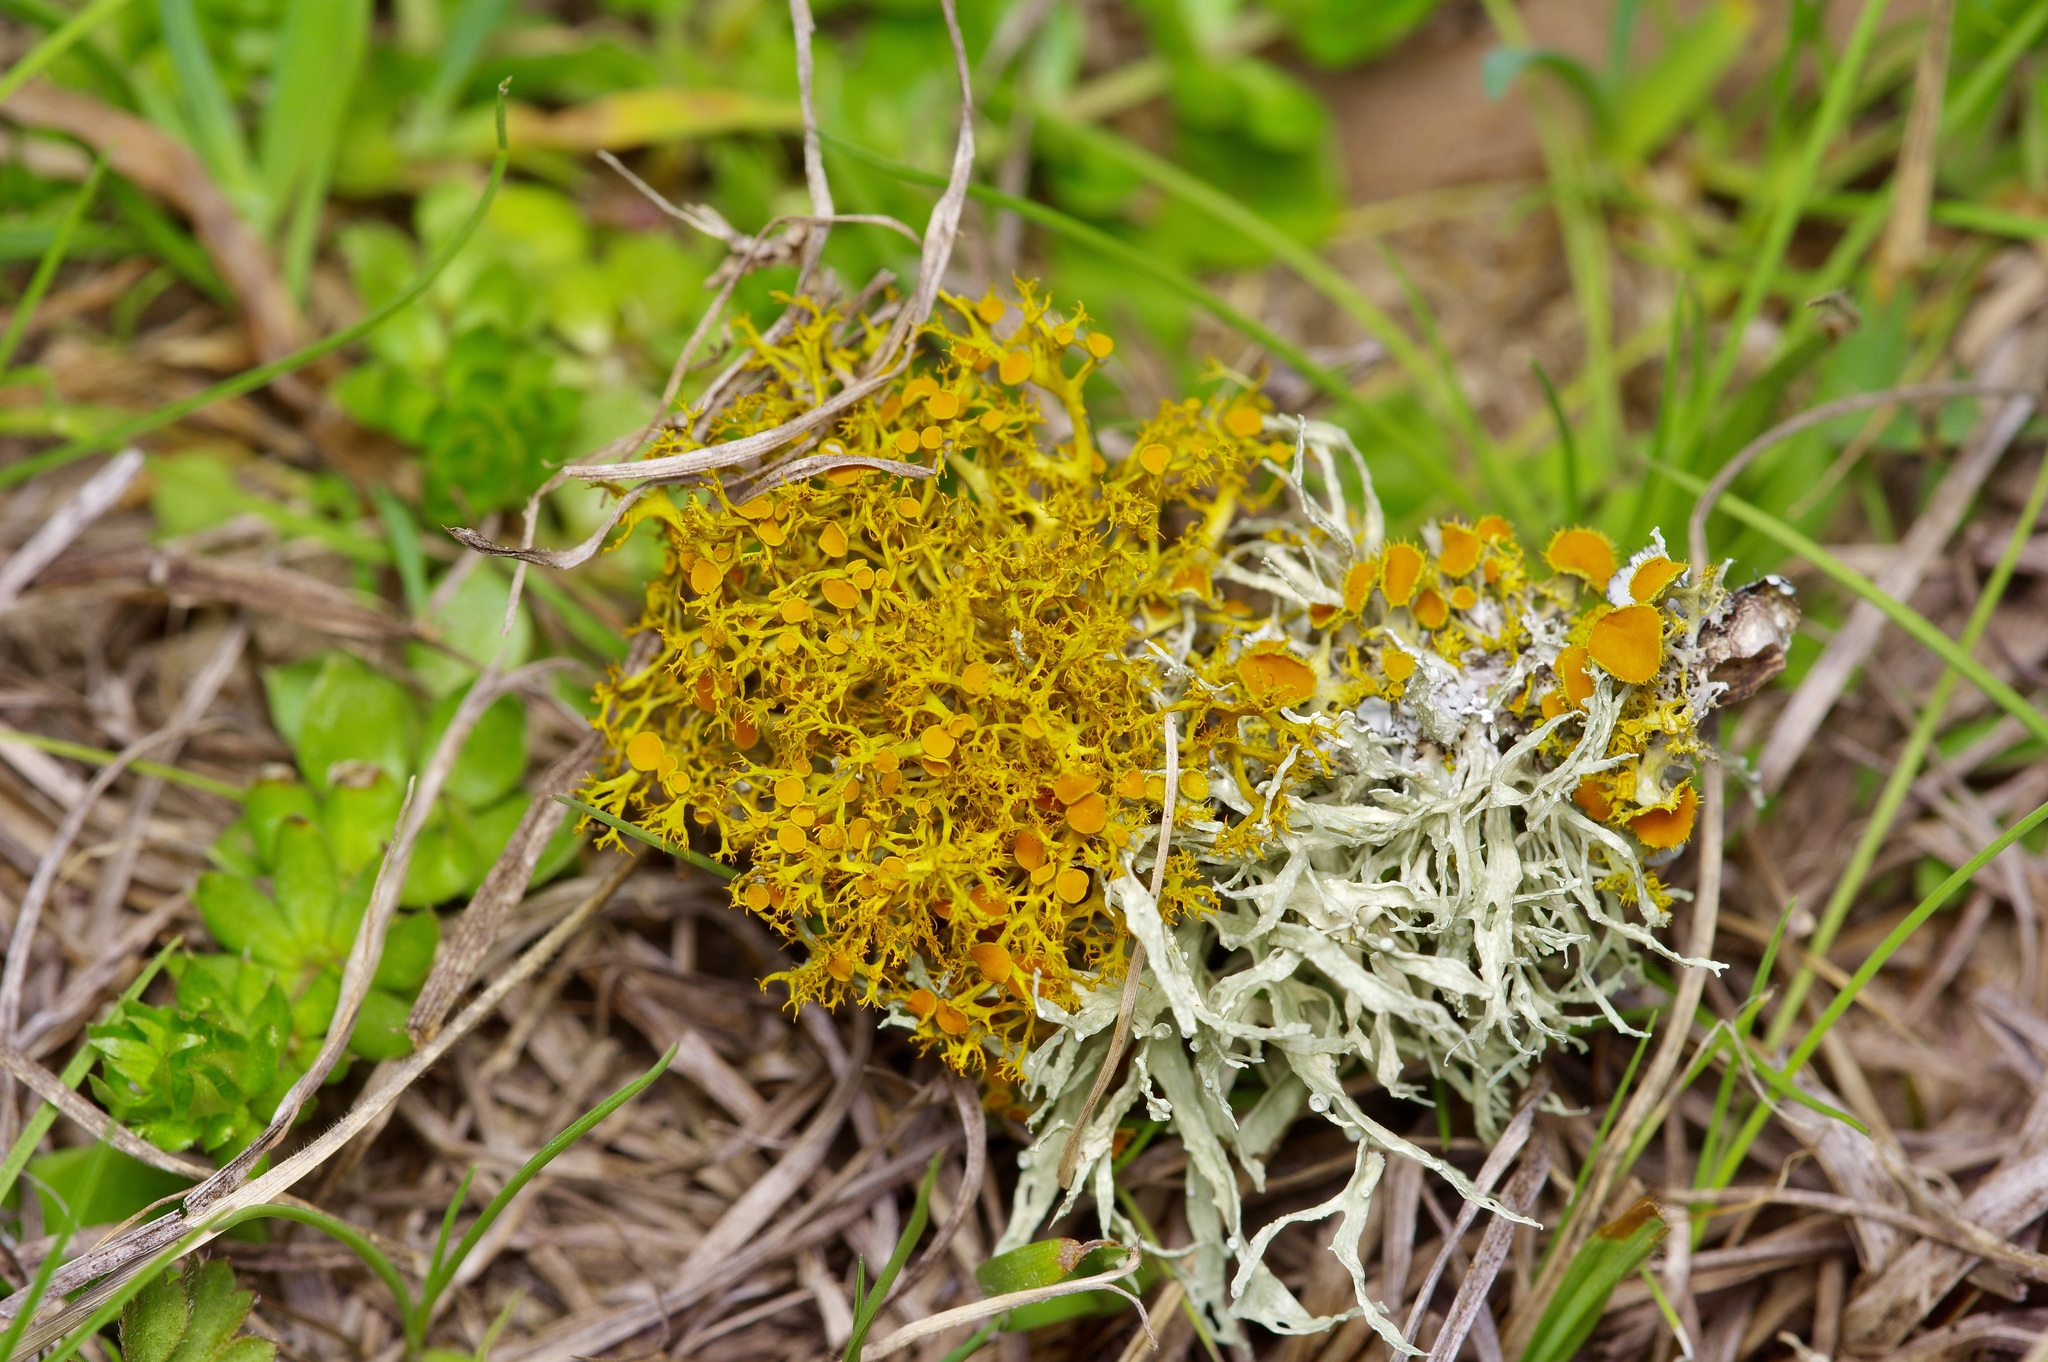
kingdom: Fungi
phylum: Ascomycota
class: Lecanoromycetes
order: Teloschistales
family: Teloschistaceae
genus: Teloschistes
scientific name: Teloschistes exilis
